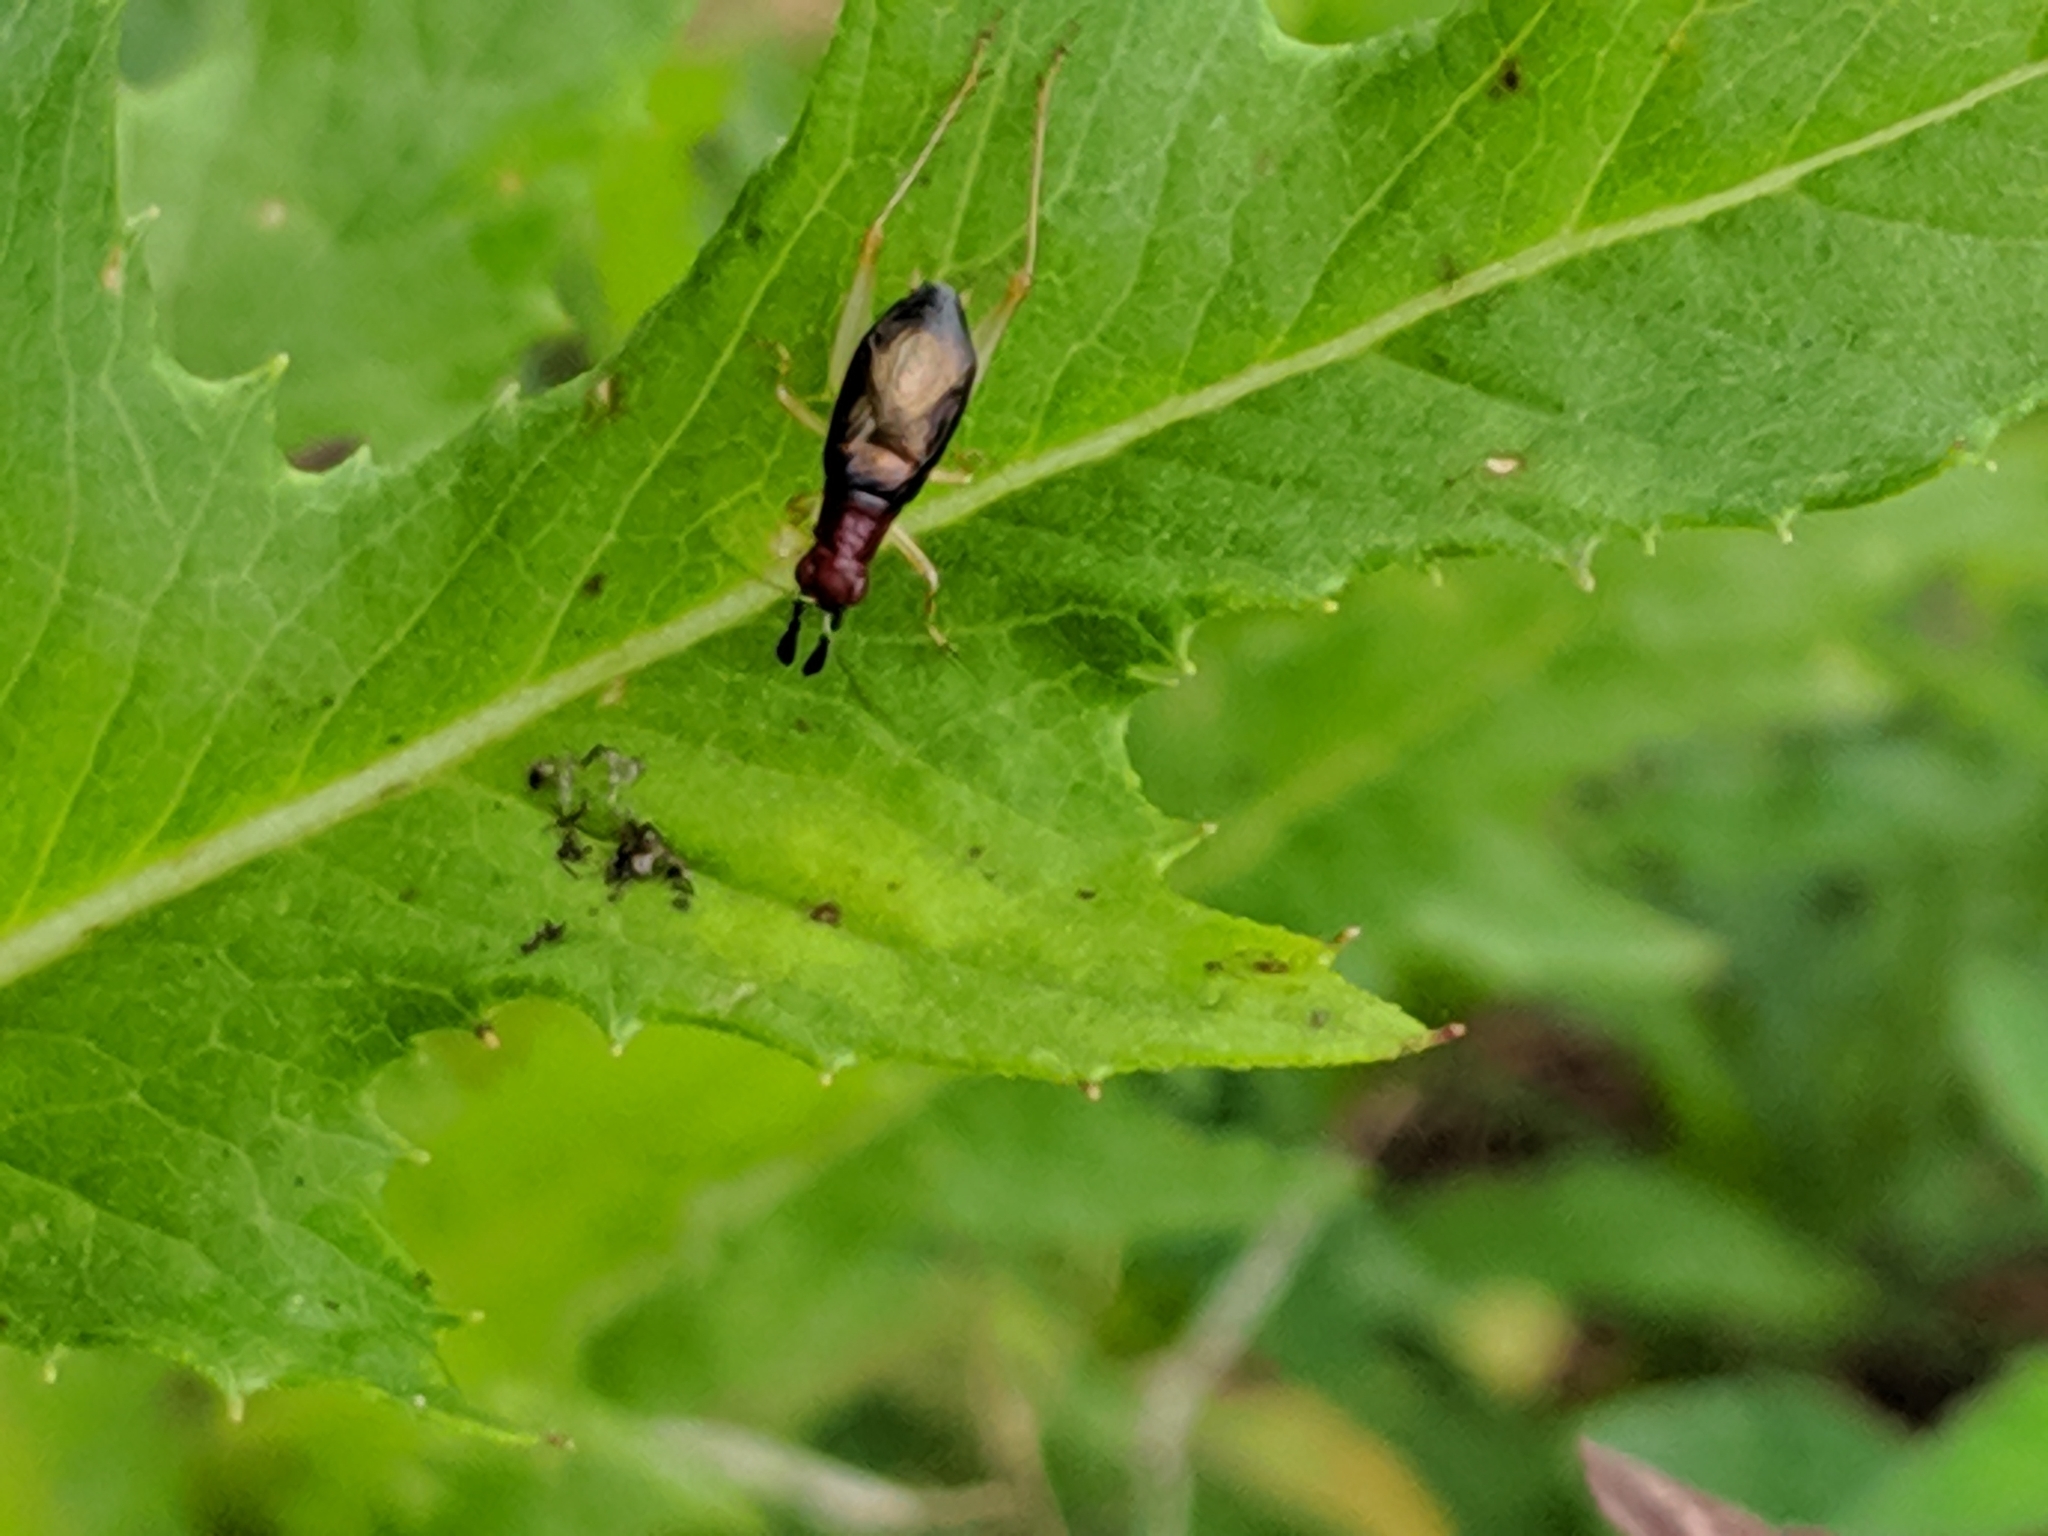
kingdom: Animalia
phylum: Arthropoda
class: Insecta
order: Orthoptera
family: Trigonidiidae
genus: Phyllopalpus
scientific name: Phyllopalpus pulchellus
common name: Handsome trig
